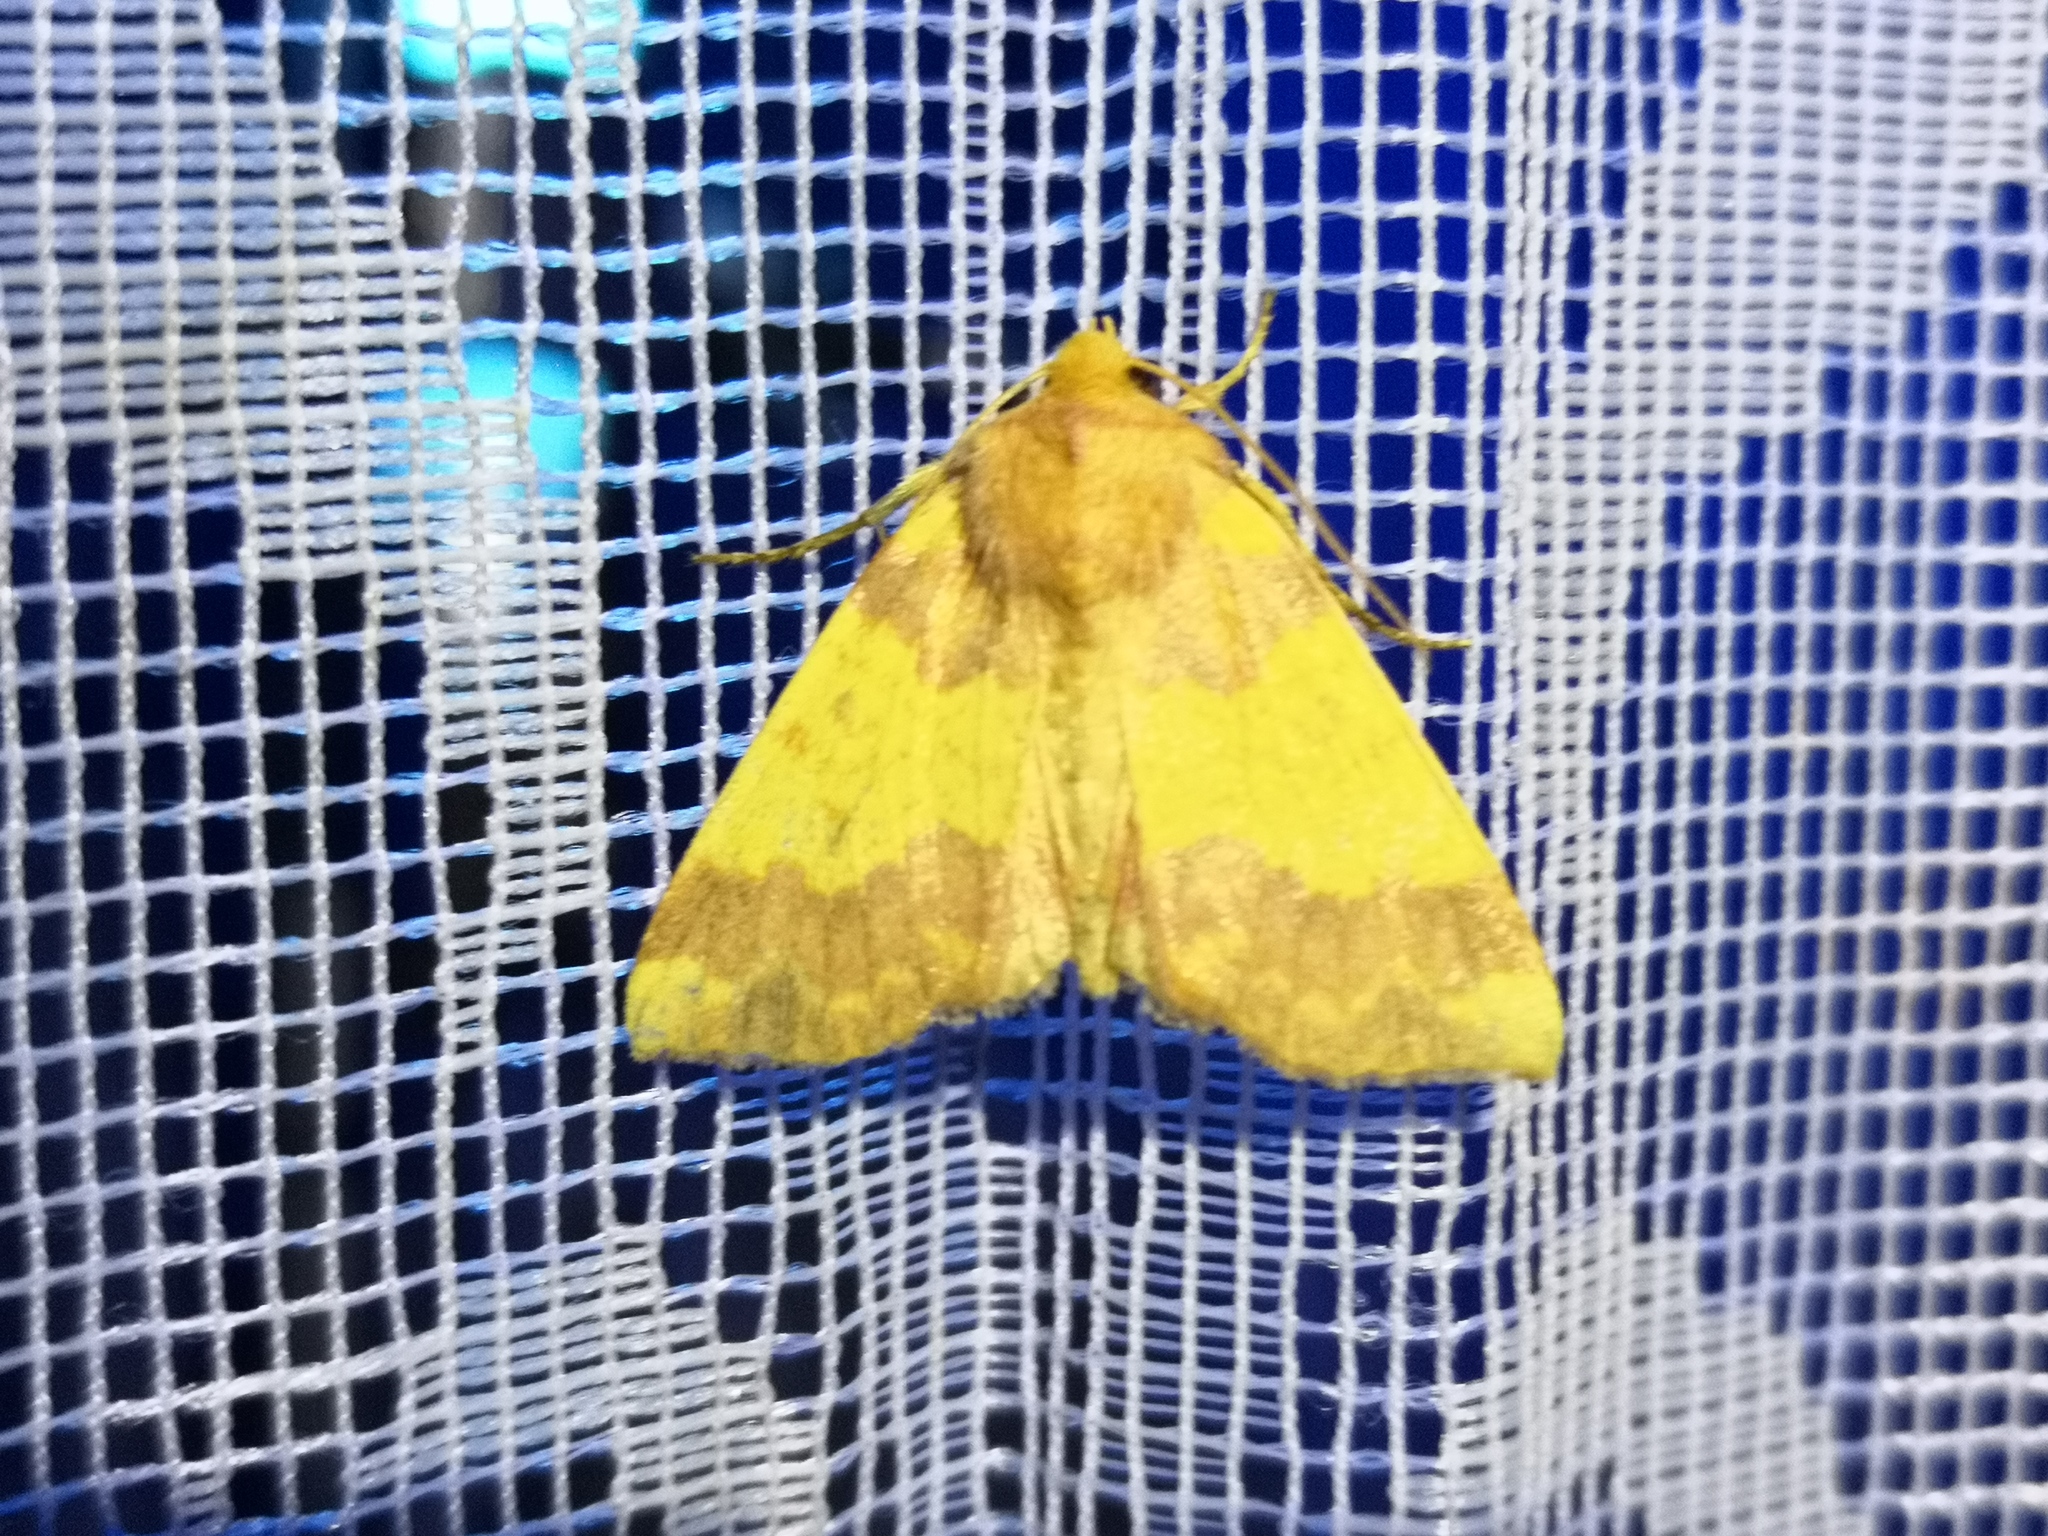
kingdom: Animalia
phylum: Arthropoda
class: Insecta
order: Lepidoptera
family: Noctuidae
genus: Tiliacea
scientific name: Tiliacea aurago
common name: Barred sallow
